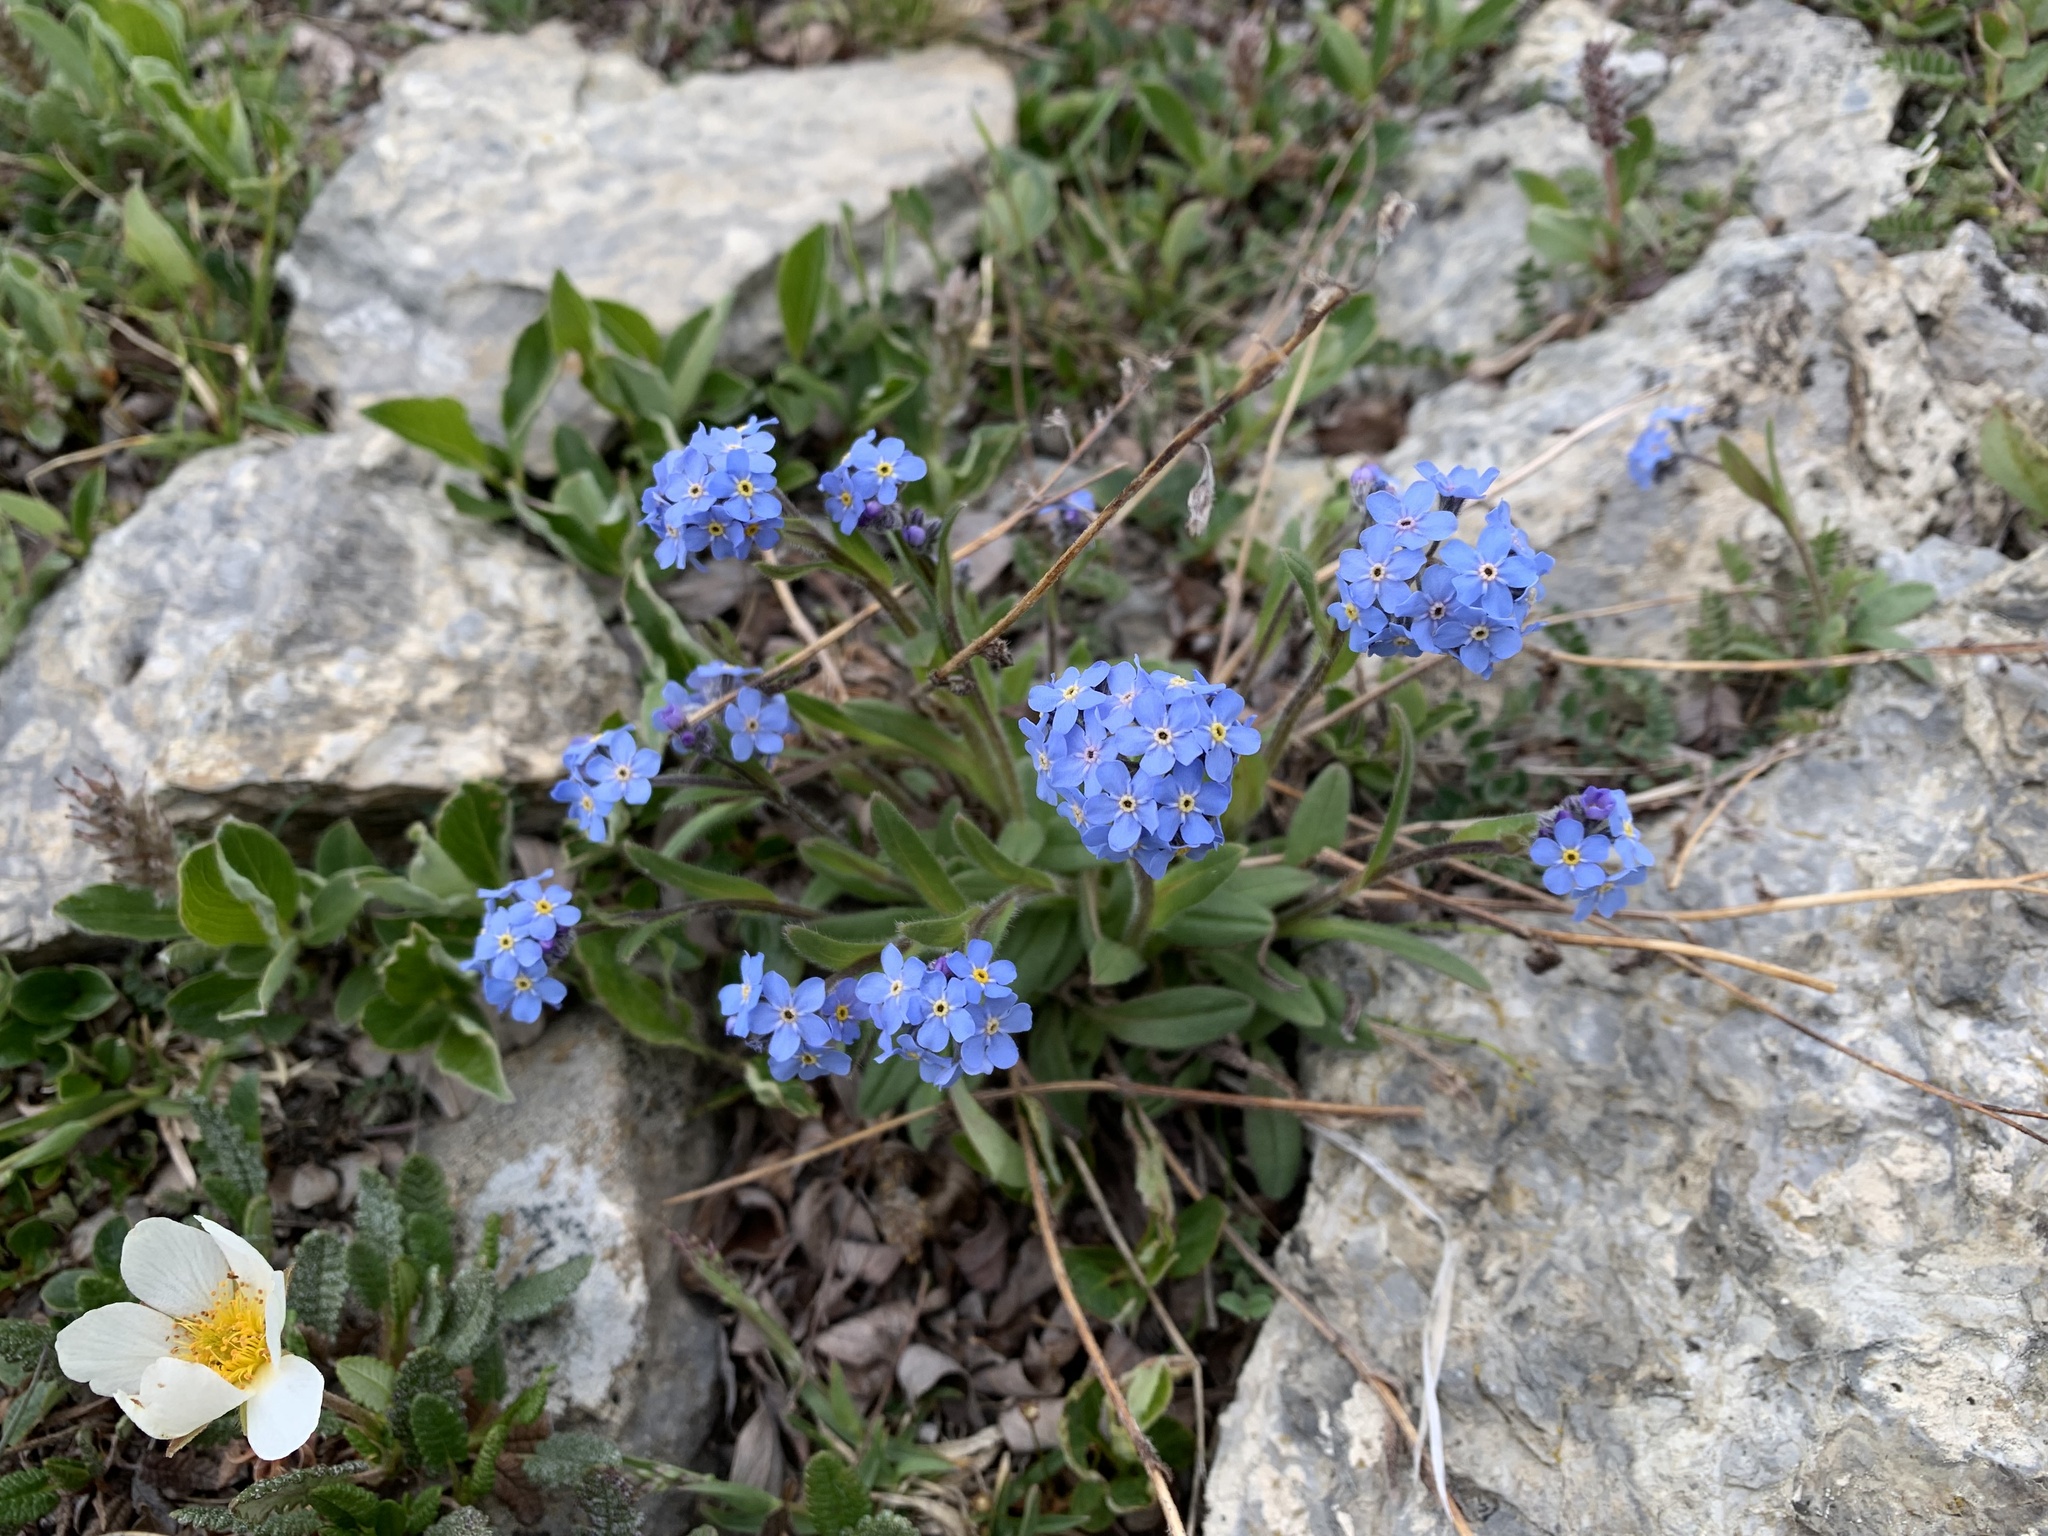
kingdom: Plantae
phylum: Tracheophyta
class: Magnoliopsida
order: Boraginales
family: Boraginaceae
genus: Myosotis
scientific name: Myosotis asiatica
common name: Asian forget-me-not
